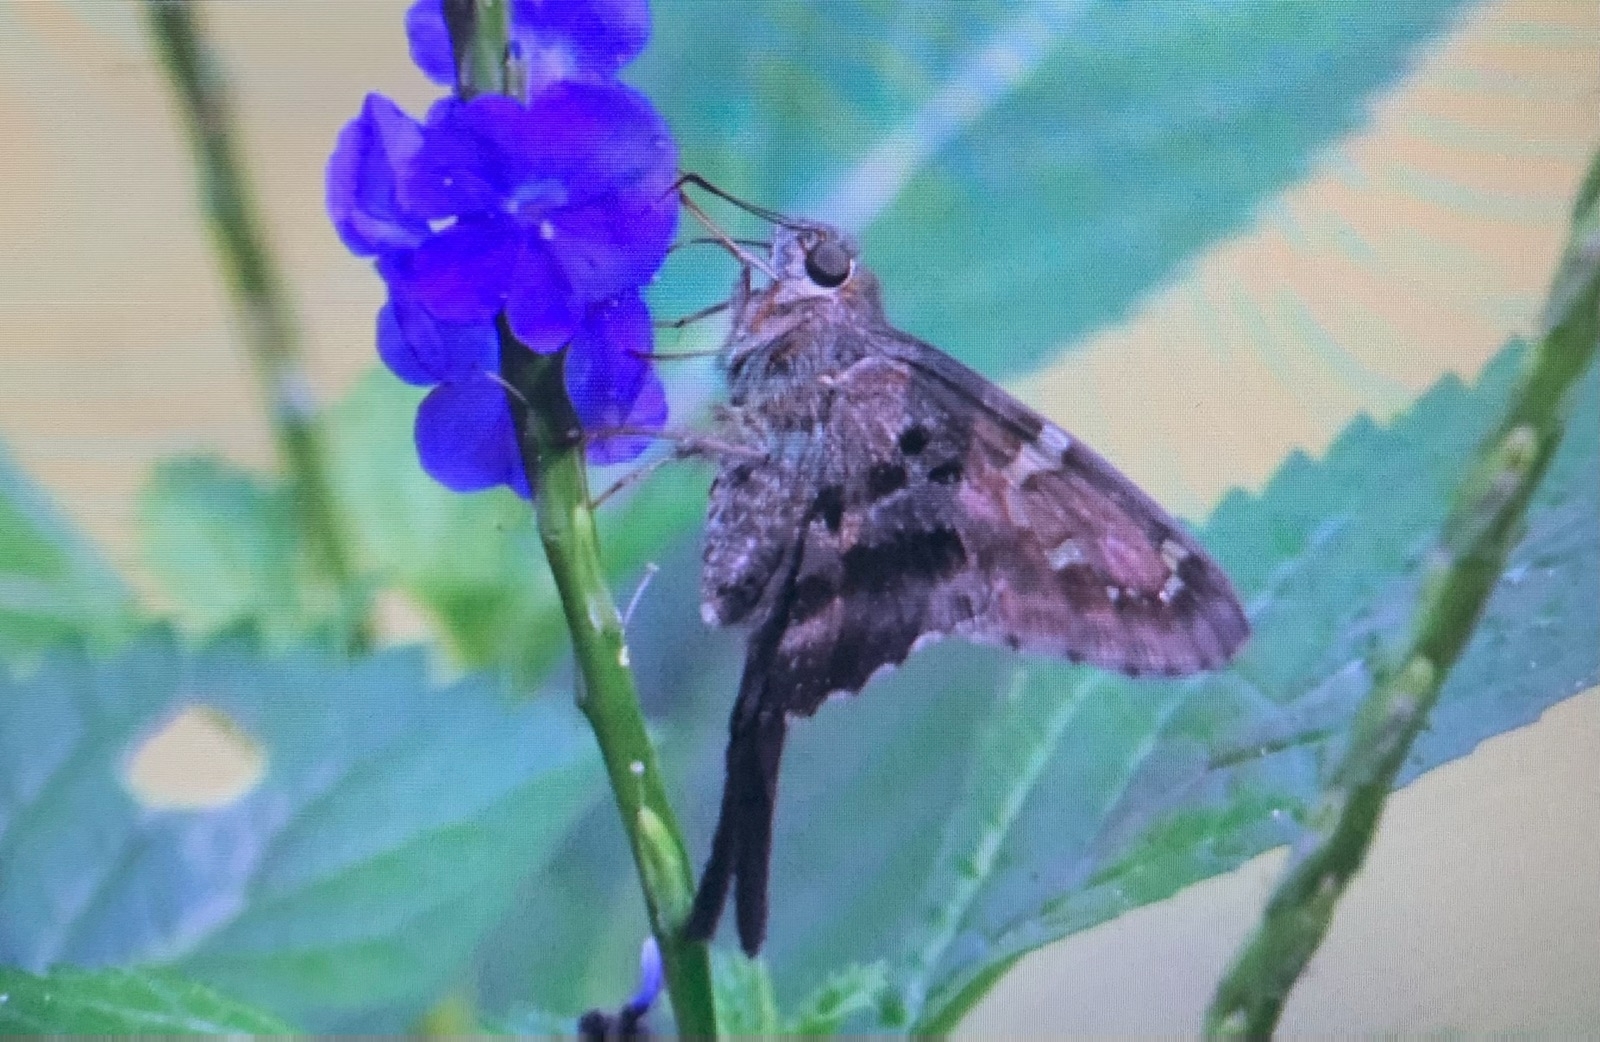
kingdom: Animalia
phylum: Arthropoda
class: Insecta
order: Lepidoptera
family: Hesperiidae
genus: Urbanus
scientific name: Urbanus proteus
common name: Long-tailed skipper
